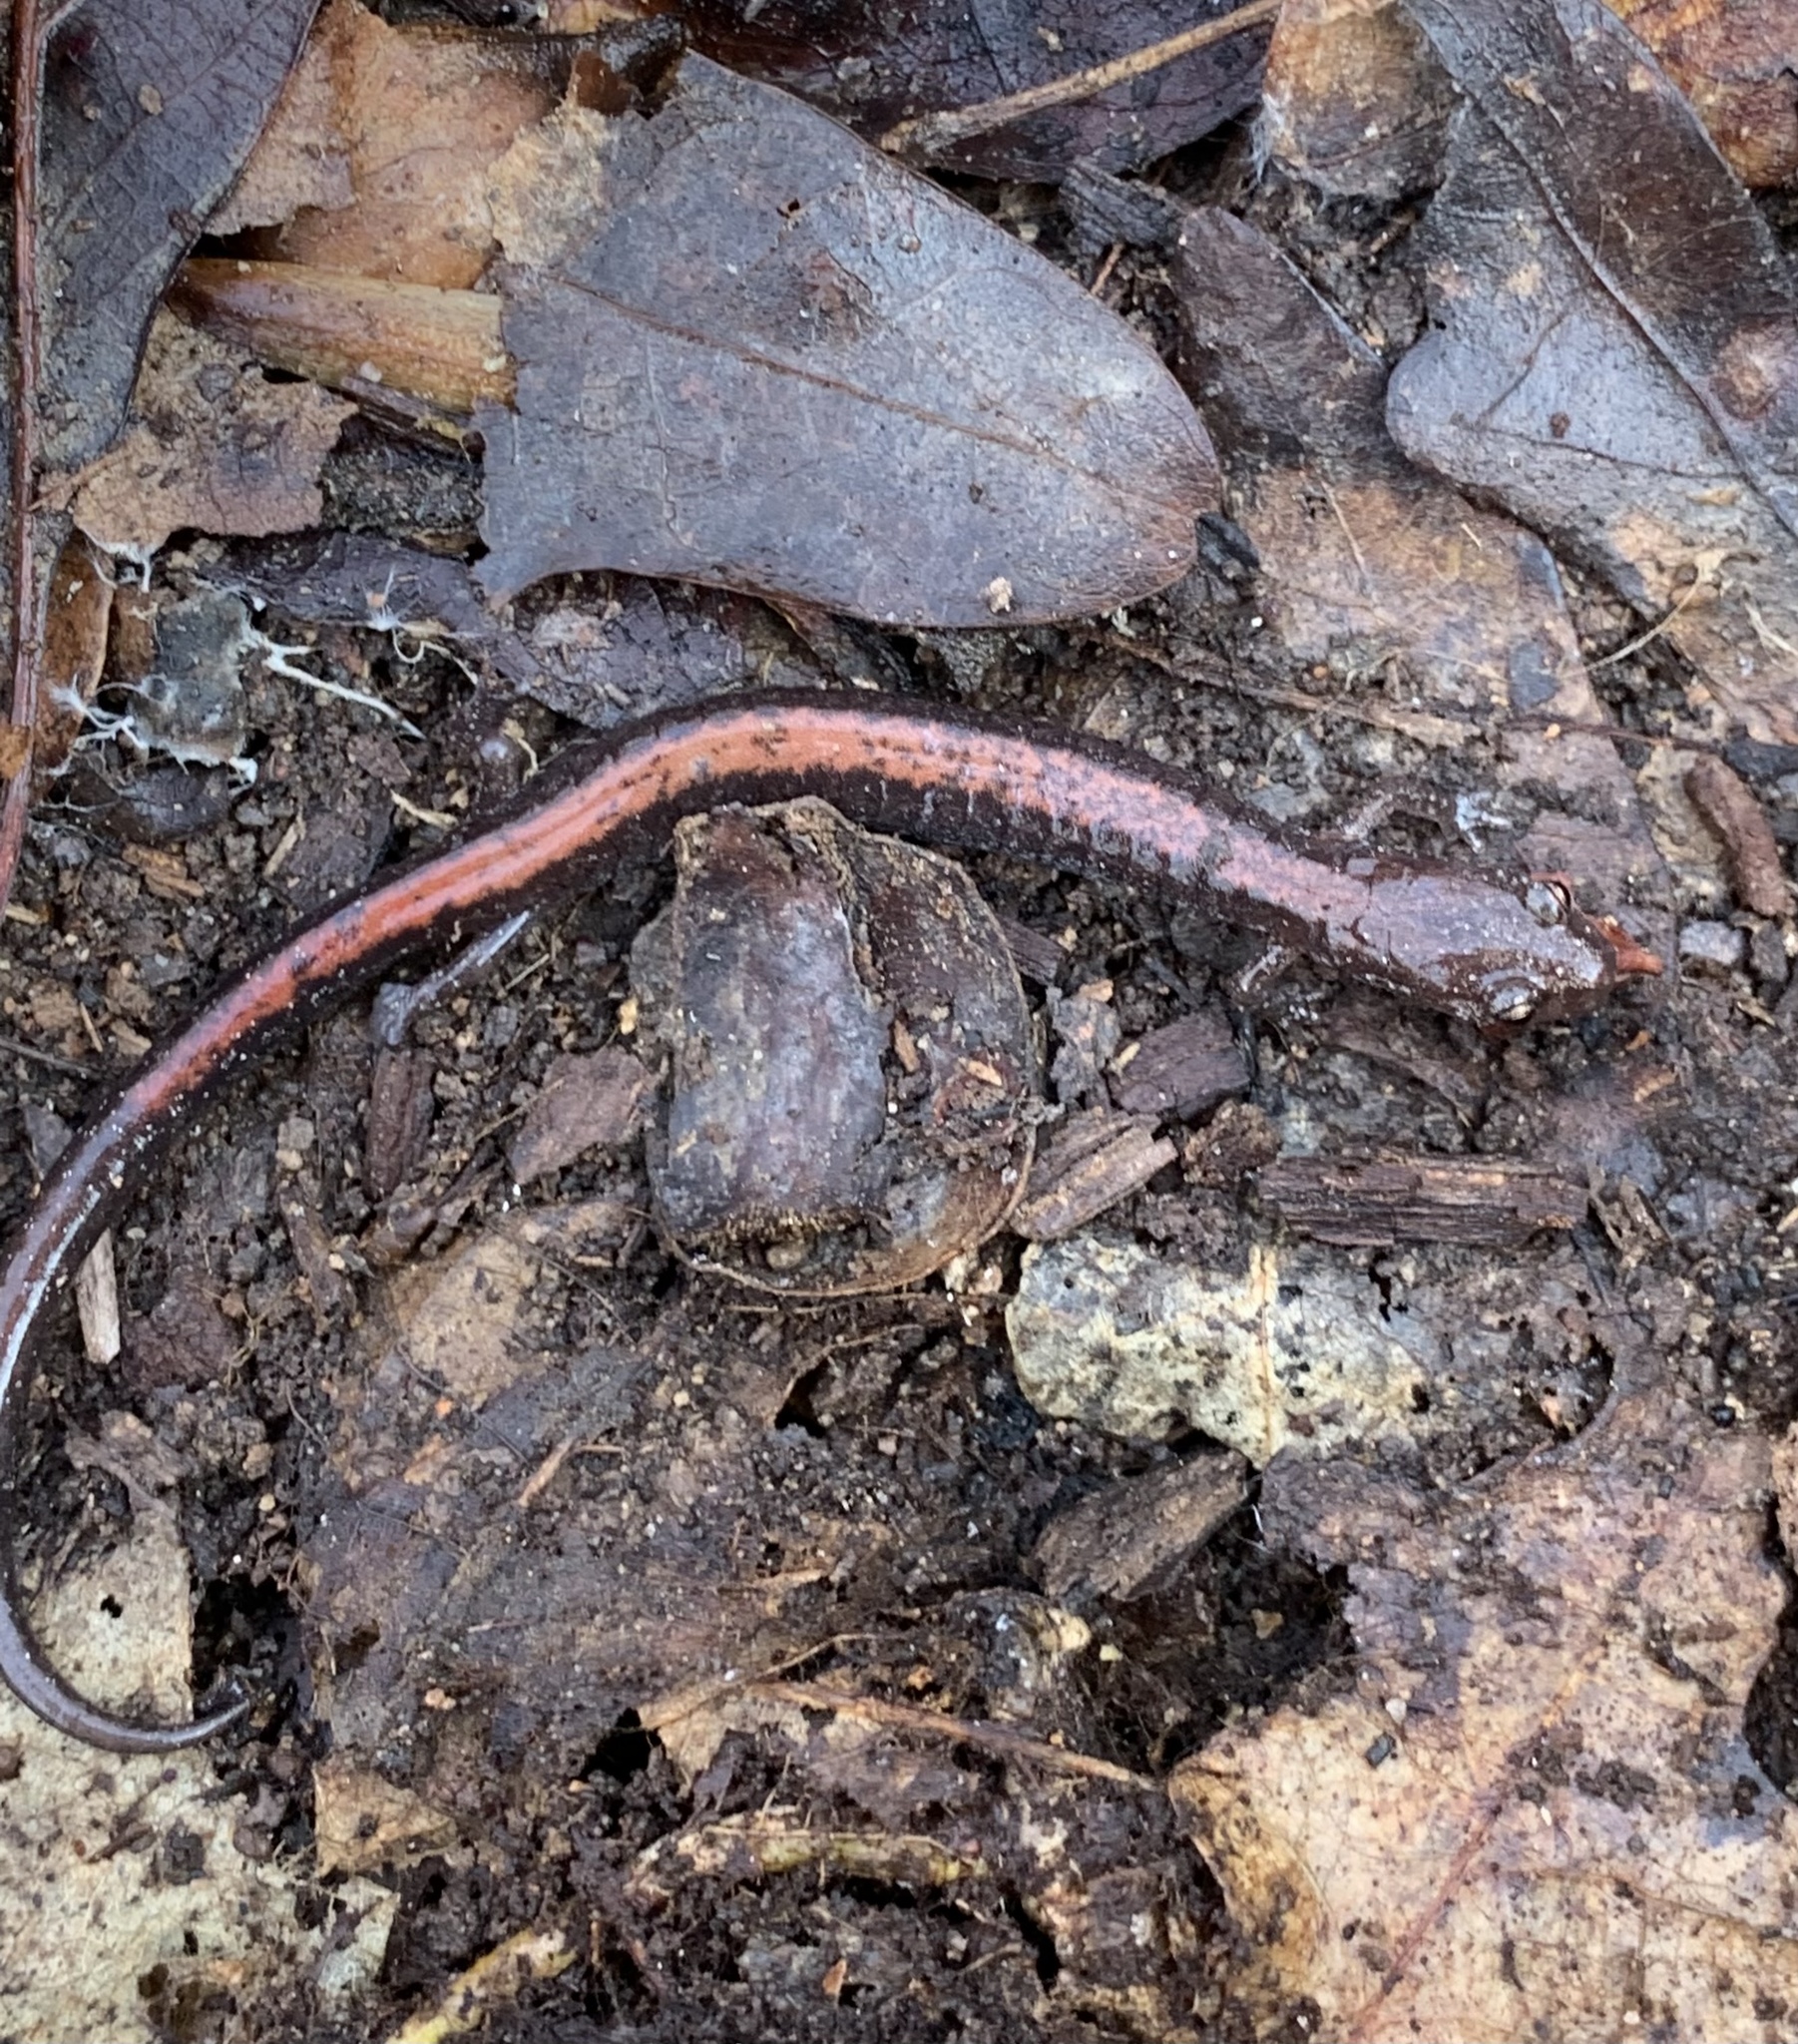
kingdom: Animalia
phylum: Chordata
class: Amphibia
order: Caudata
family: Plethodontidae
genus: Plethodon
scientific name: Plethodon cinereus
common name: Redback salamander
